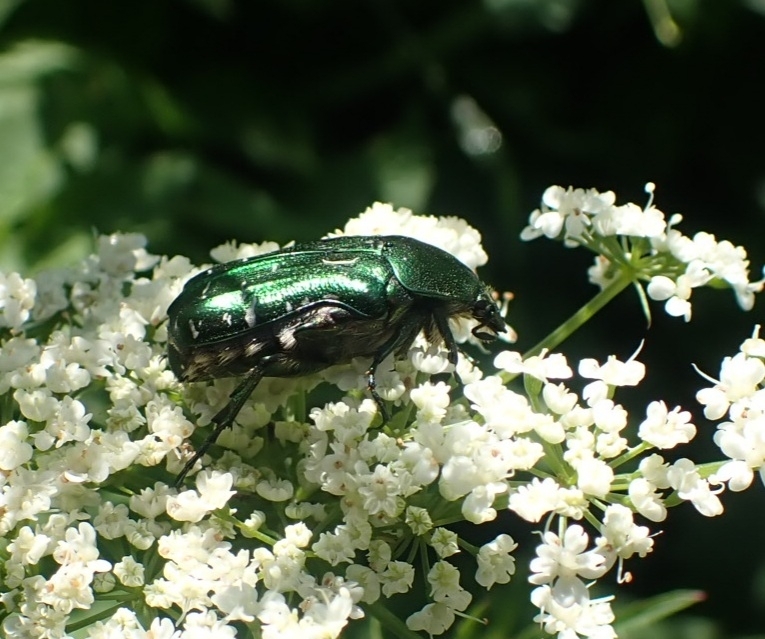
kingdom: Animalia
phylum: Arthropoda
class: Insecta
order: Coleoptera
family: Scarabaeidae
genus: Cetonia
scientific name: Cetonia aurata
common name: Rose chafer
